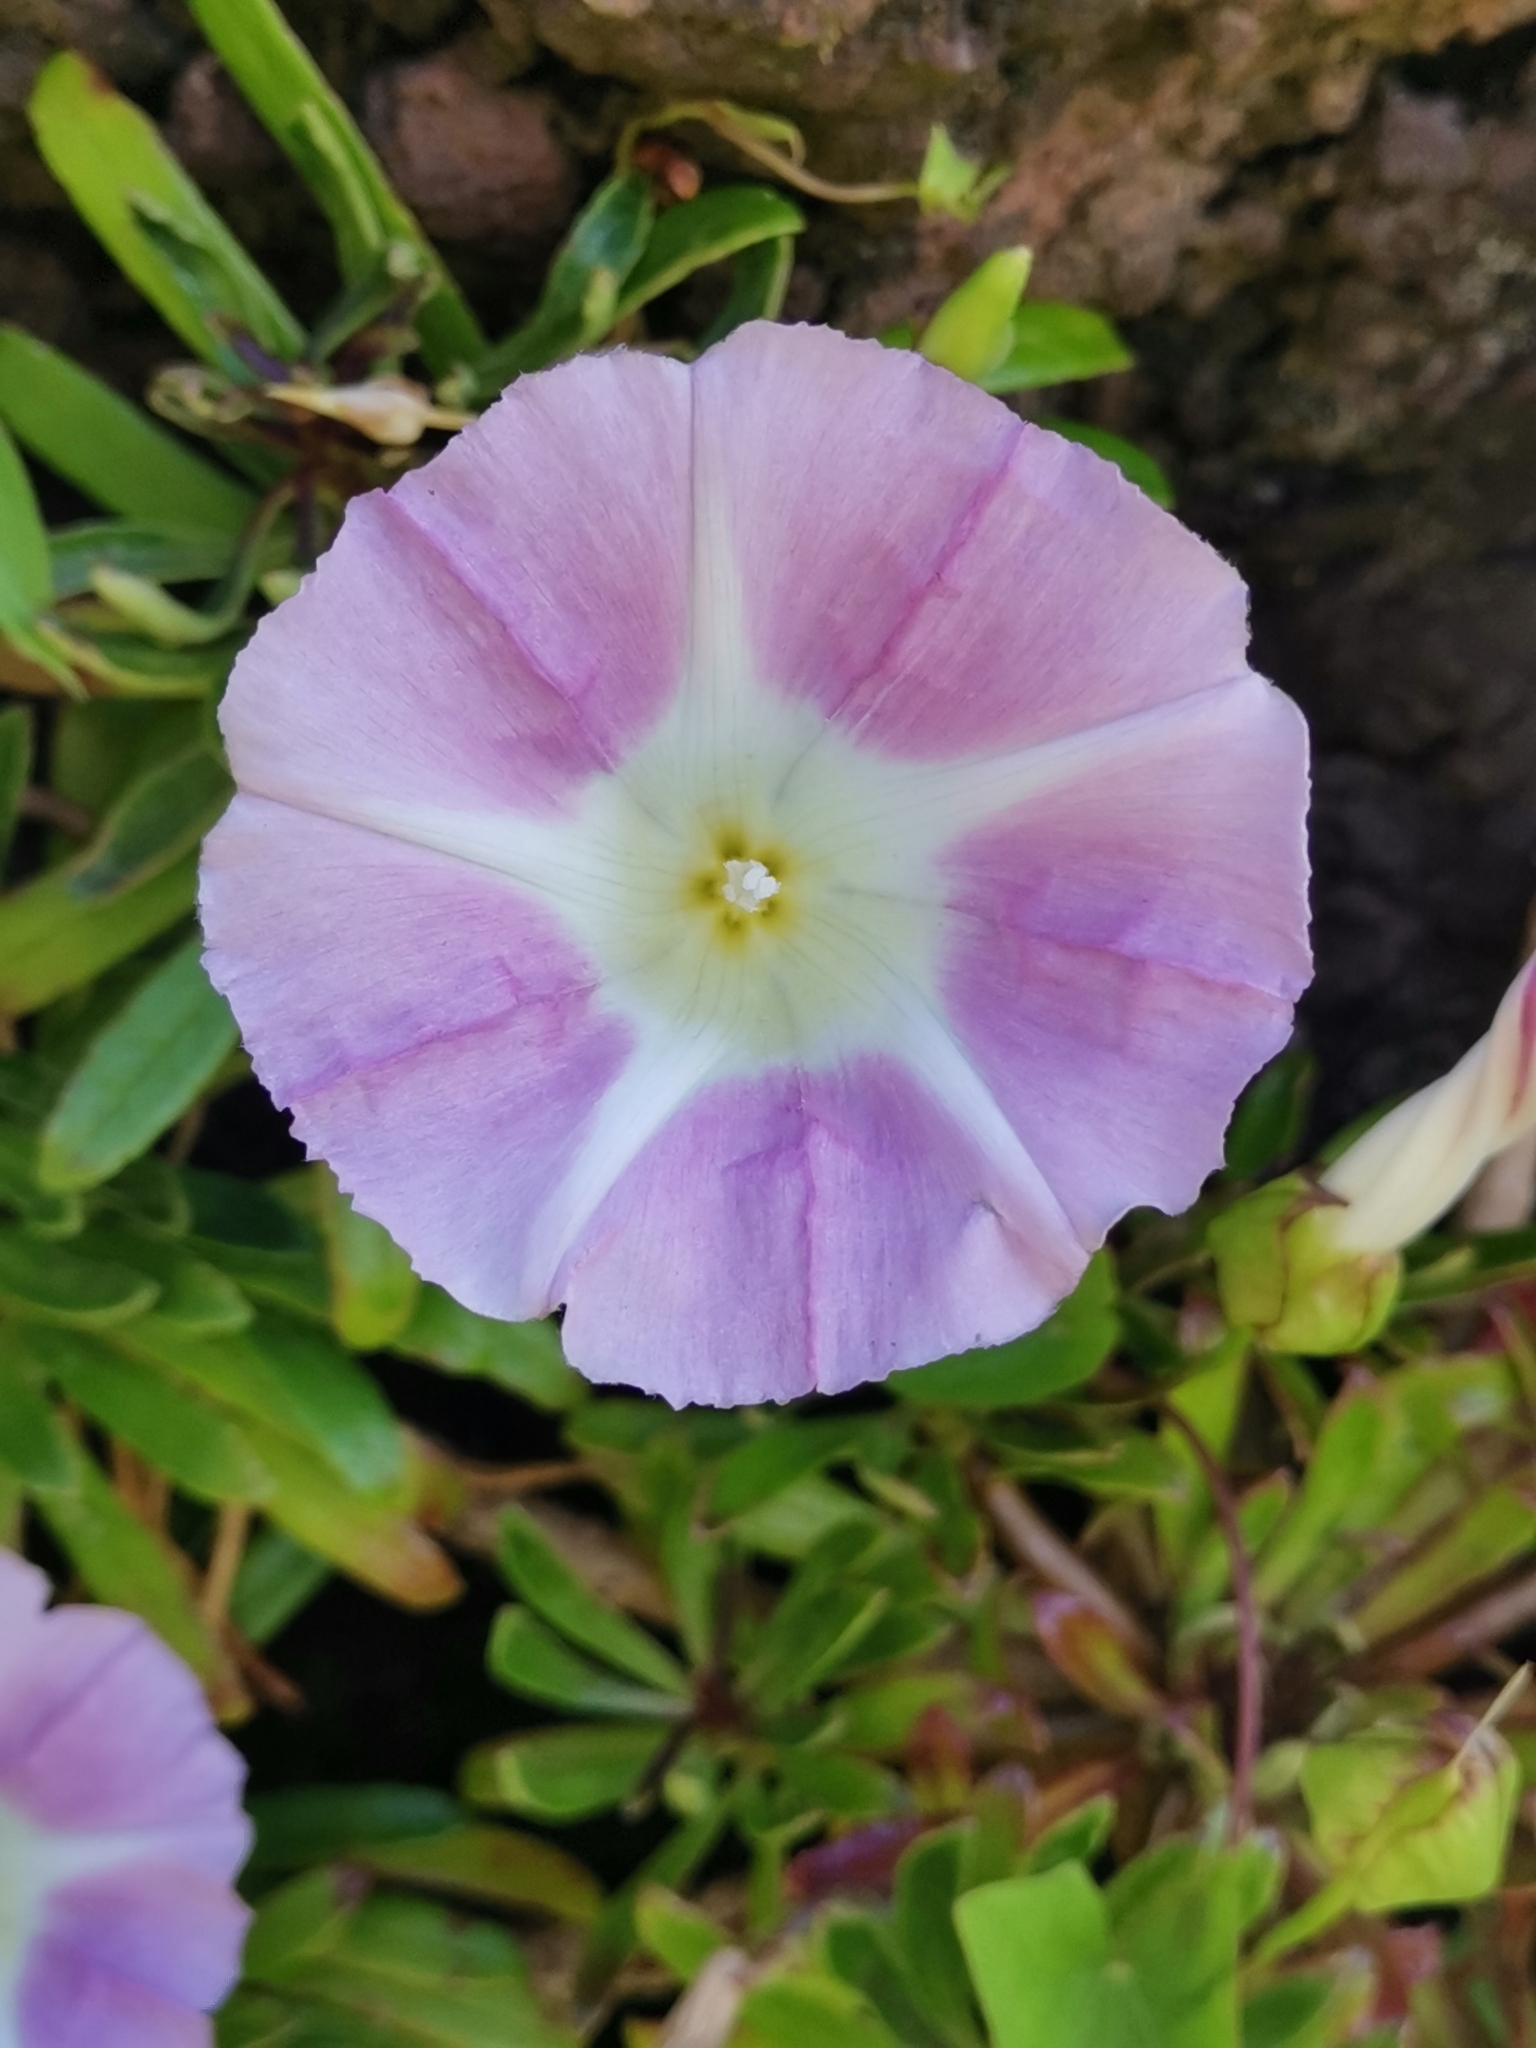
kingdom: Plantae
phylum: Tracheophyta
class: Magnoliopsida
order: Solanales
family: Convolvulaceae
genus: Calystegia
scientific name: Calystegia sepium
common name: Hedge bindweed
